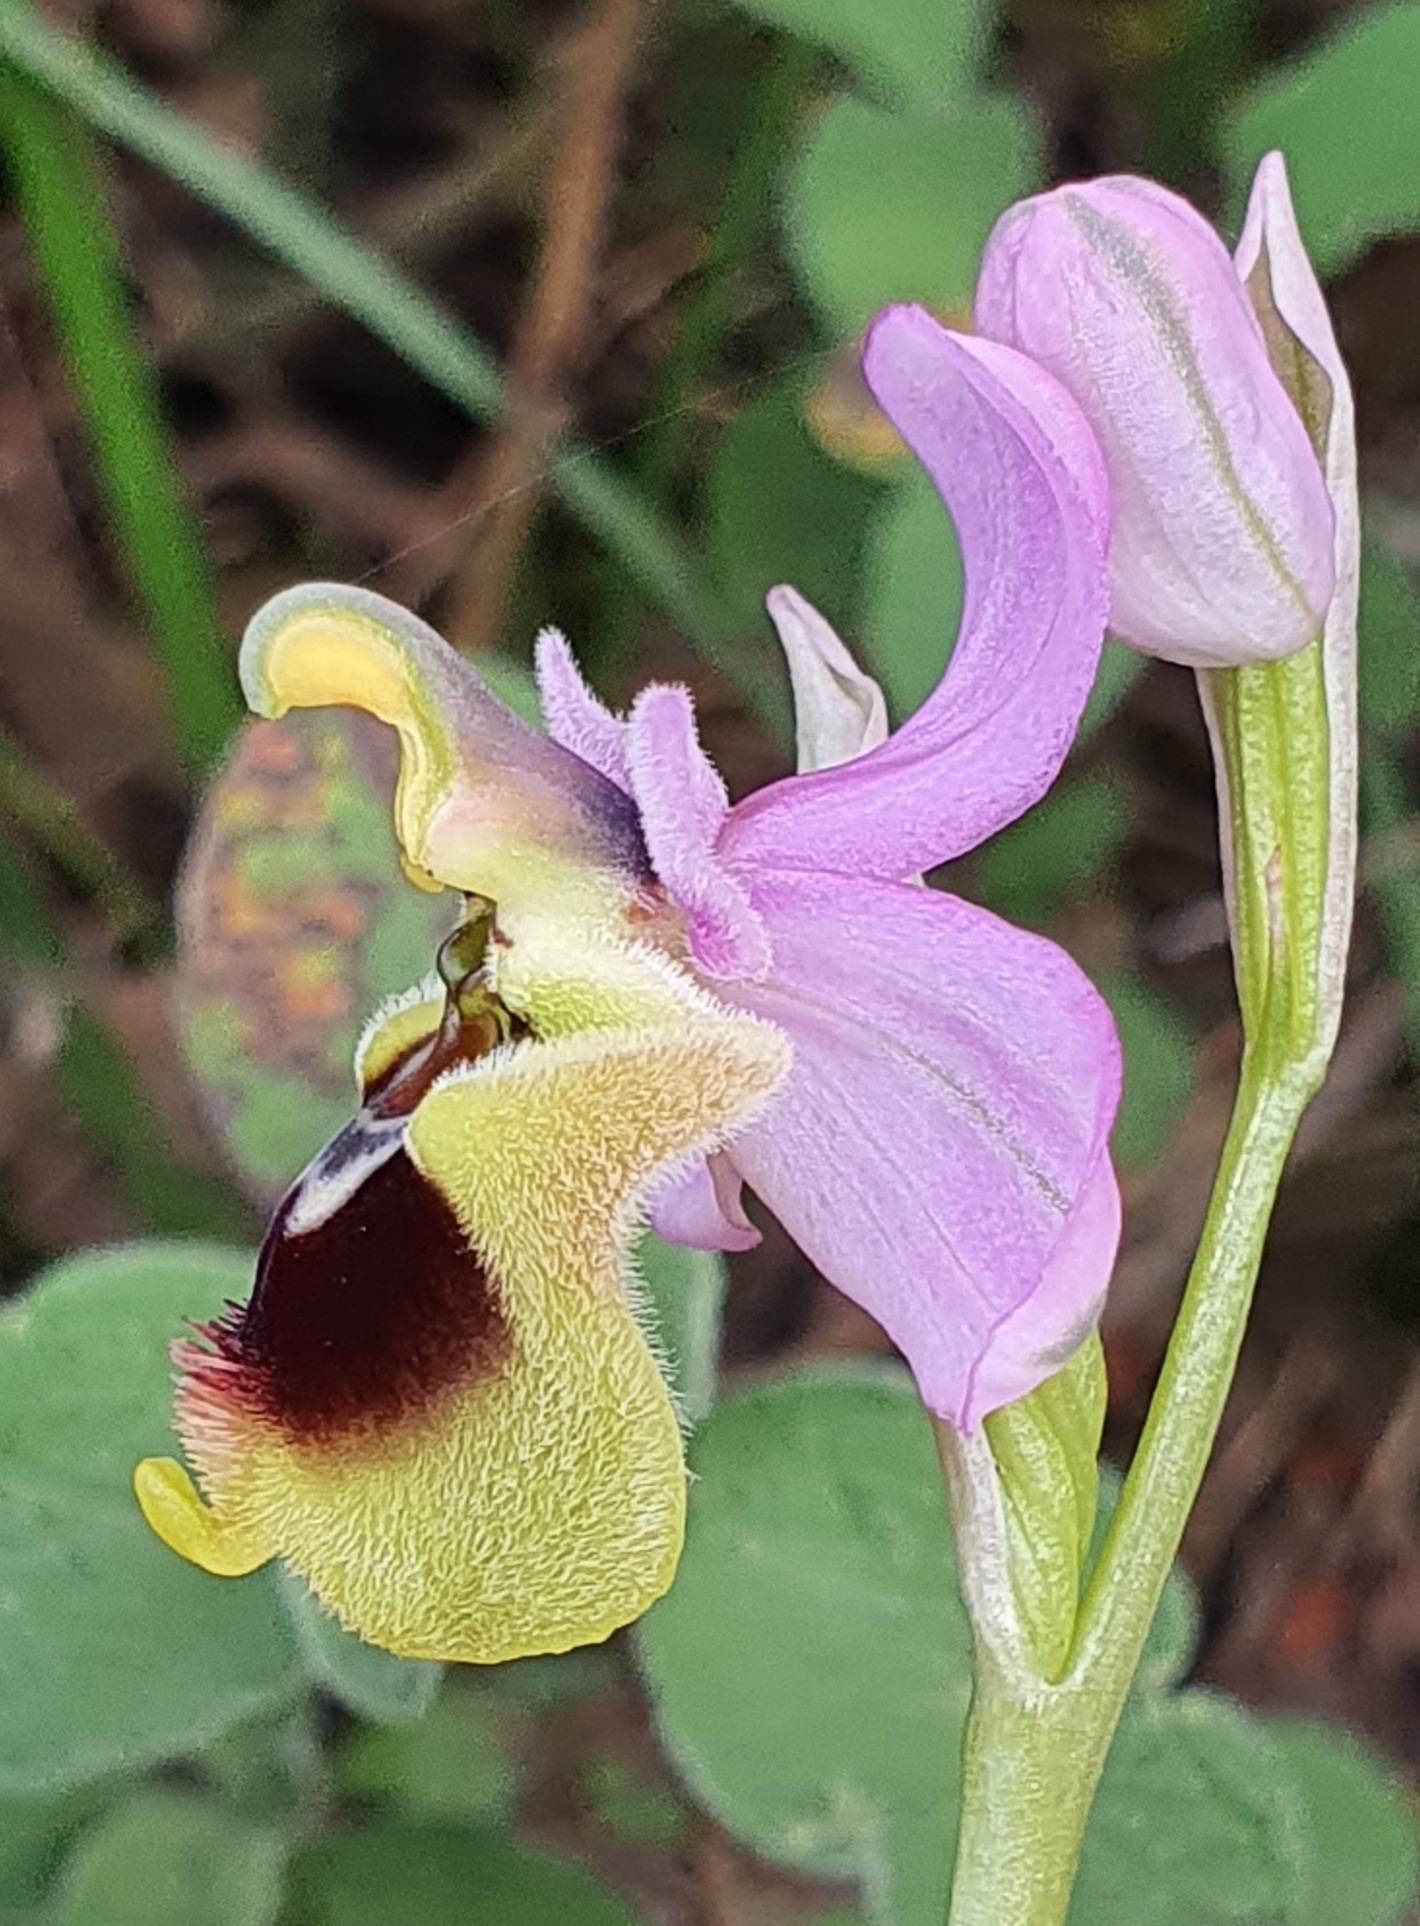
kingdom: Plantae
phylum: Tracheophyta
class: Liliopsida
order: Asparagales
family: Orchidaceae
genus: Ophrys
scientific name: Ophrys tenthredinifera
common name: Sawfly orchid
